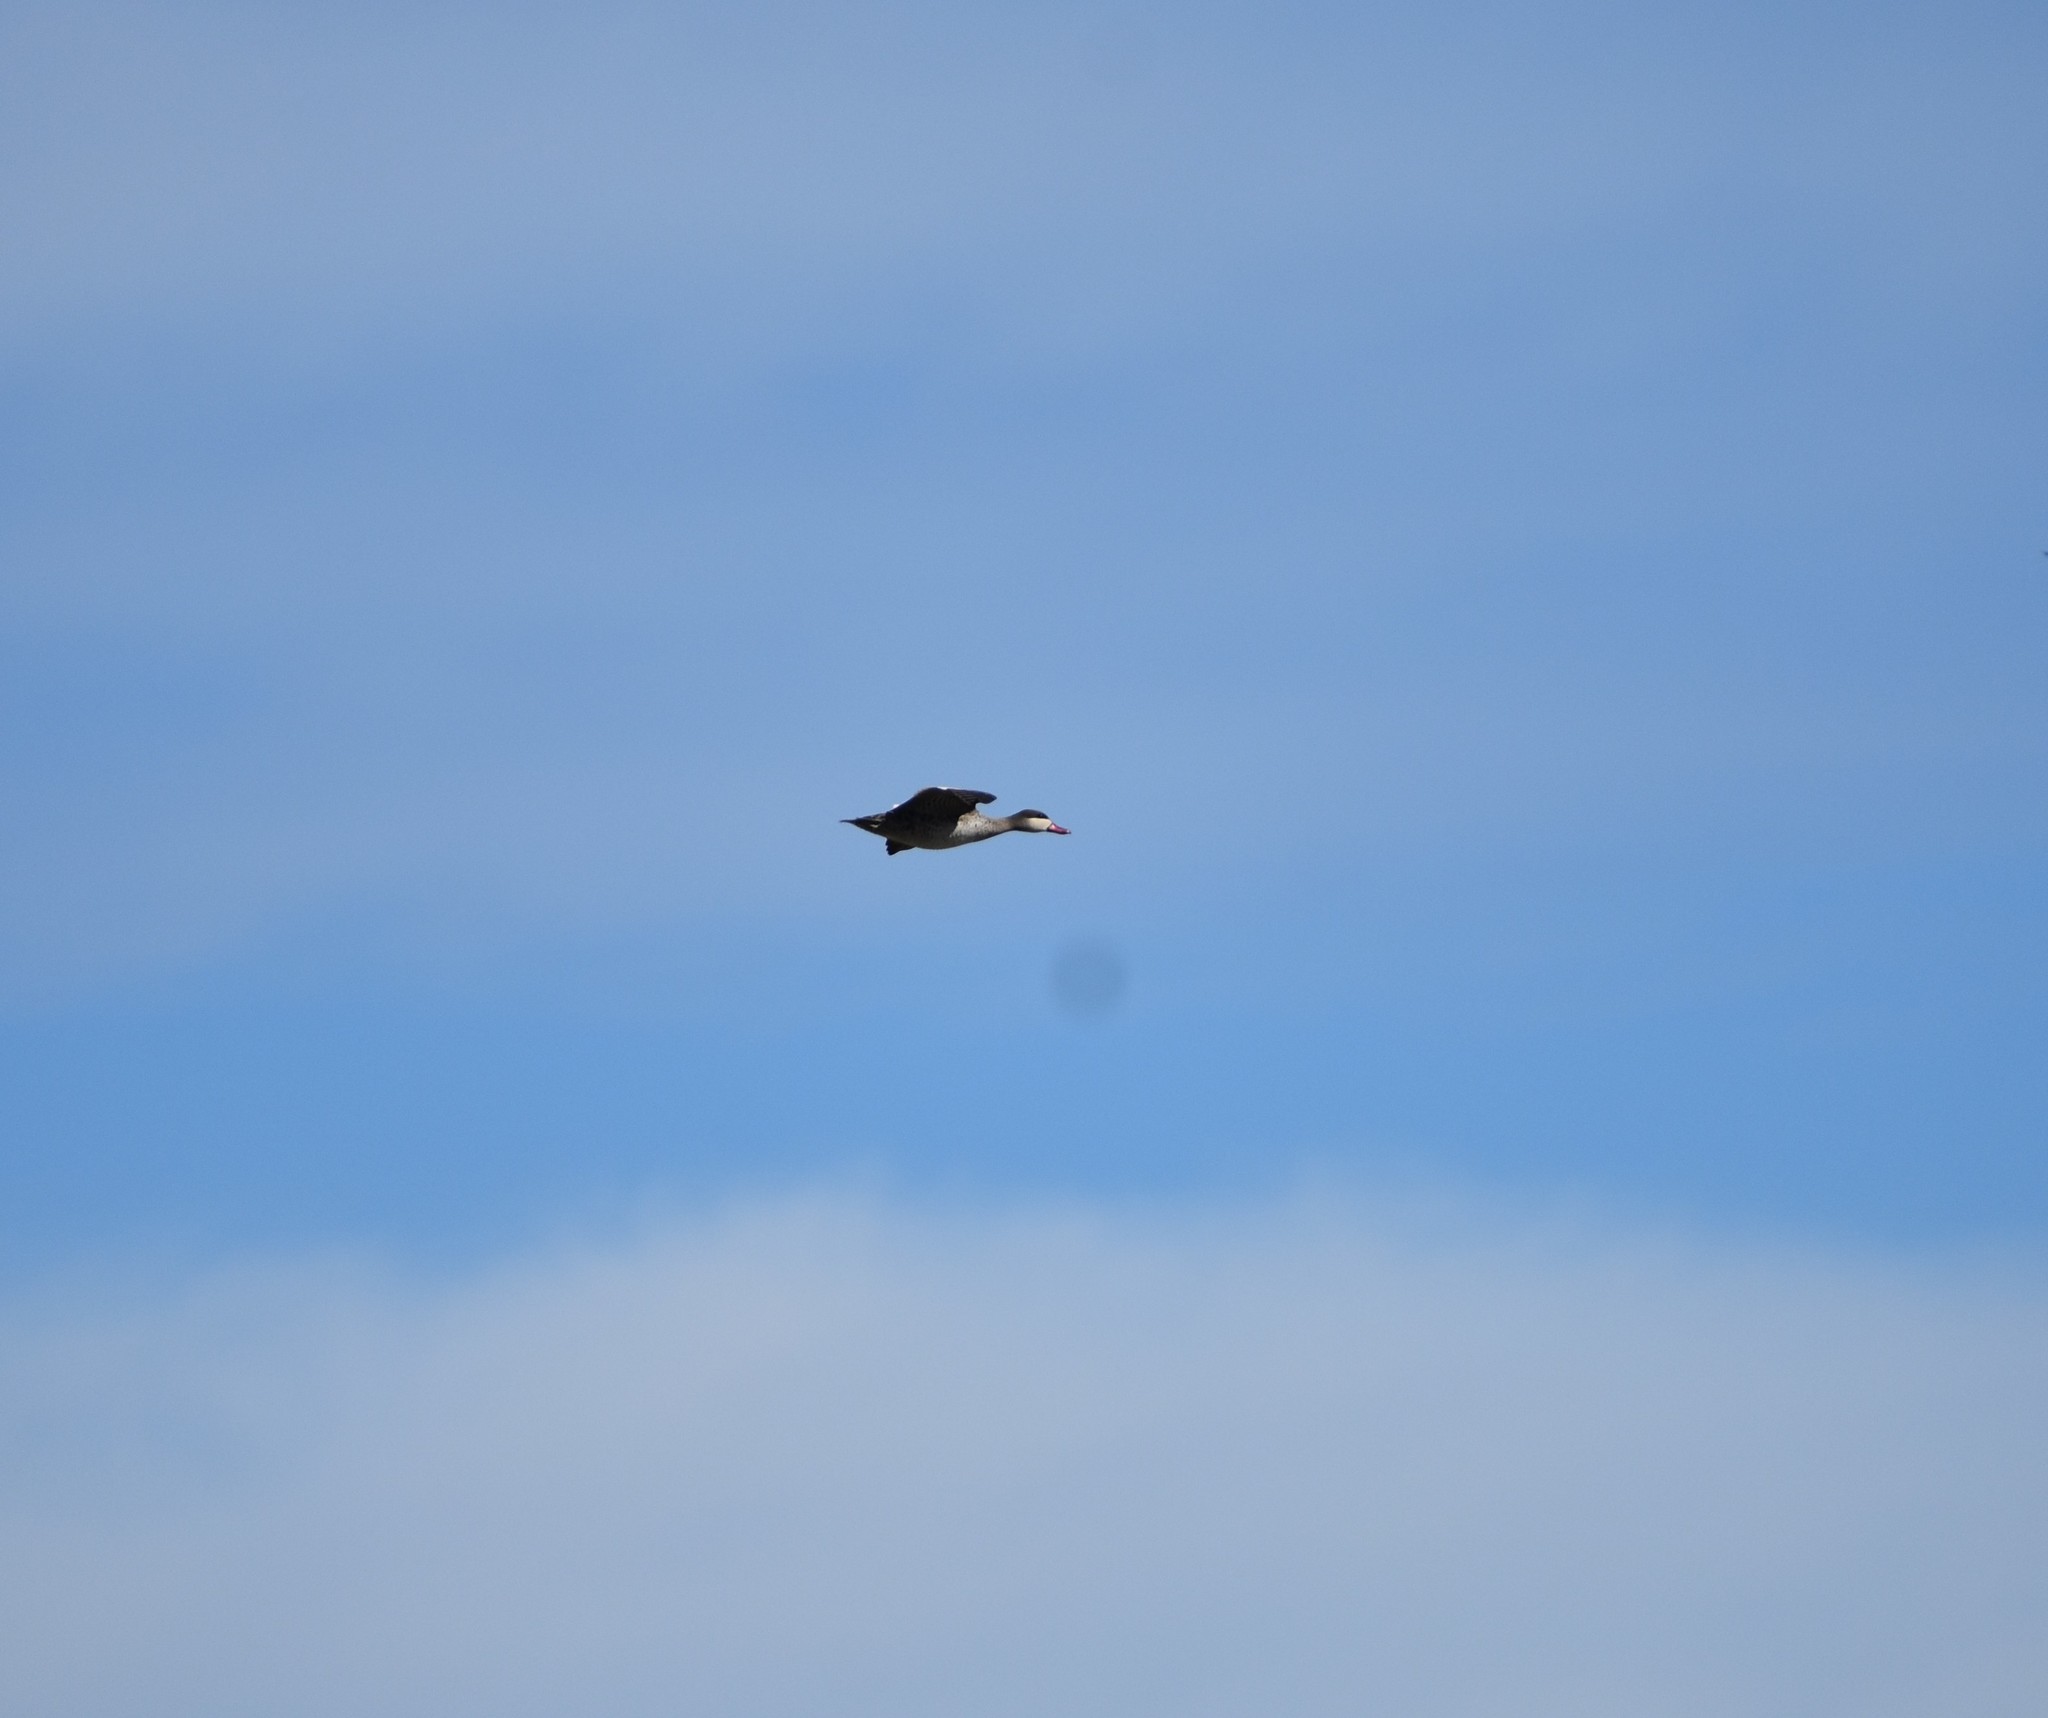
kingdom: Animalia
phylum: Chordata
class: Aves
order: Anseriformes
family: Anatidae
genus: Anas
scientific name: Anas erythrorhyncha
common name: Red-billed teal
